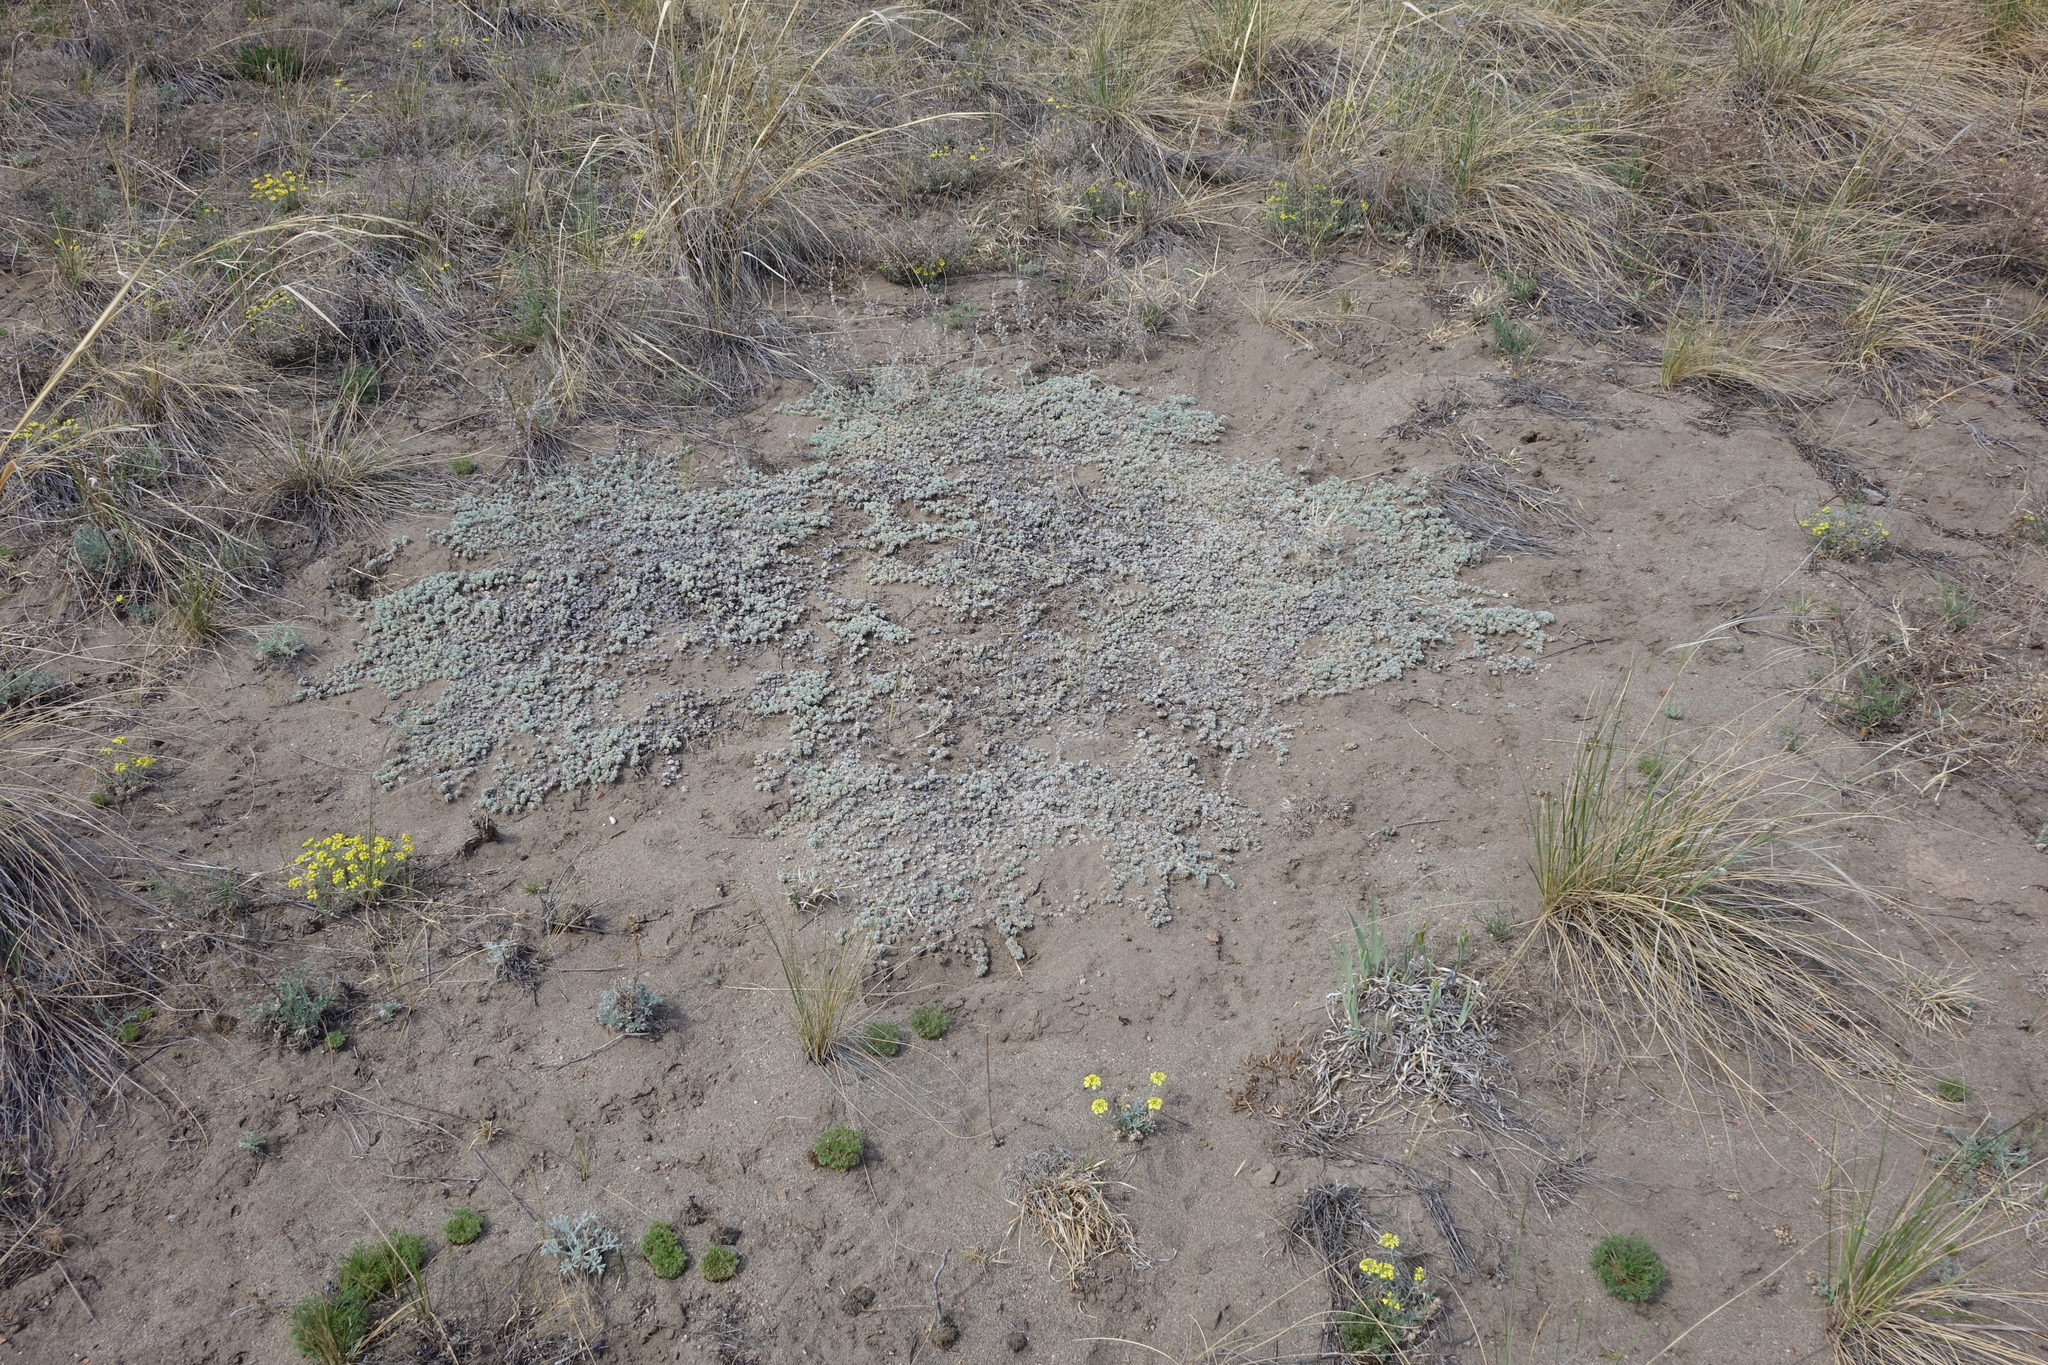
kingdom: Plantae
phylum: Tracheophyta
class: Magnoliopsida
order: Rosales
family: Rosaceae
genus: Potentilla
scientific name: Potentilla acaulis
